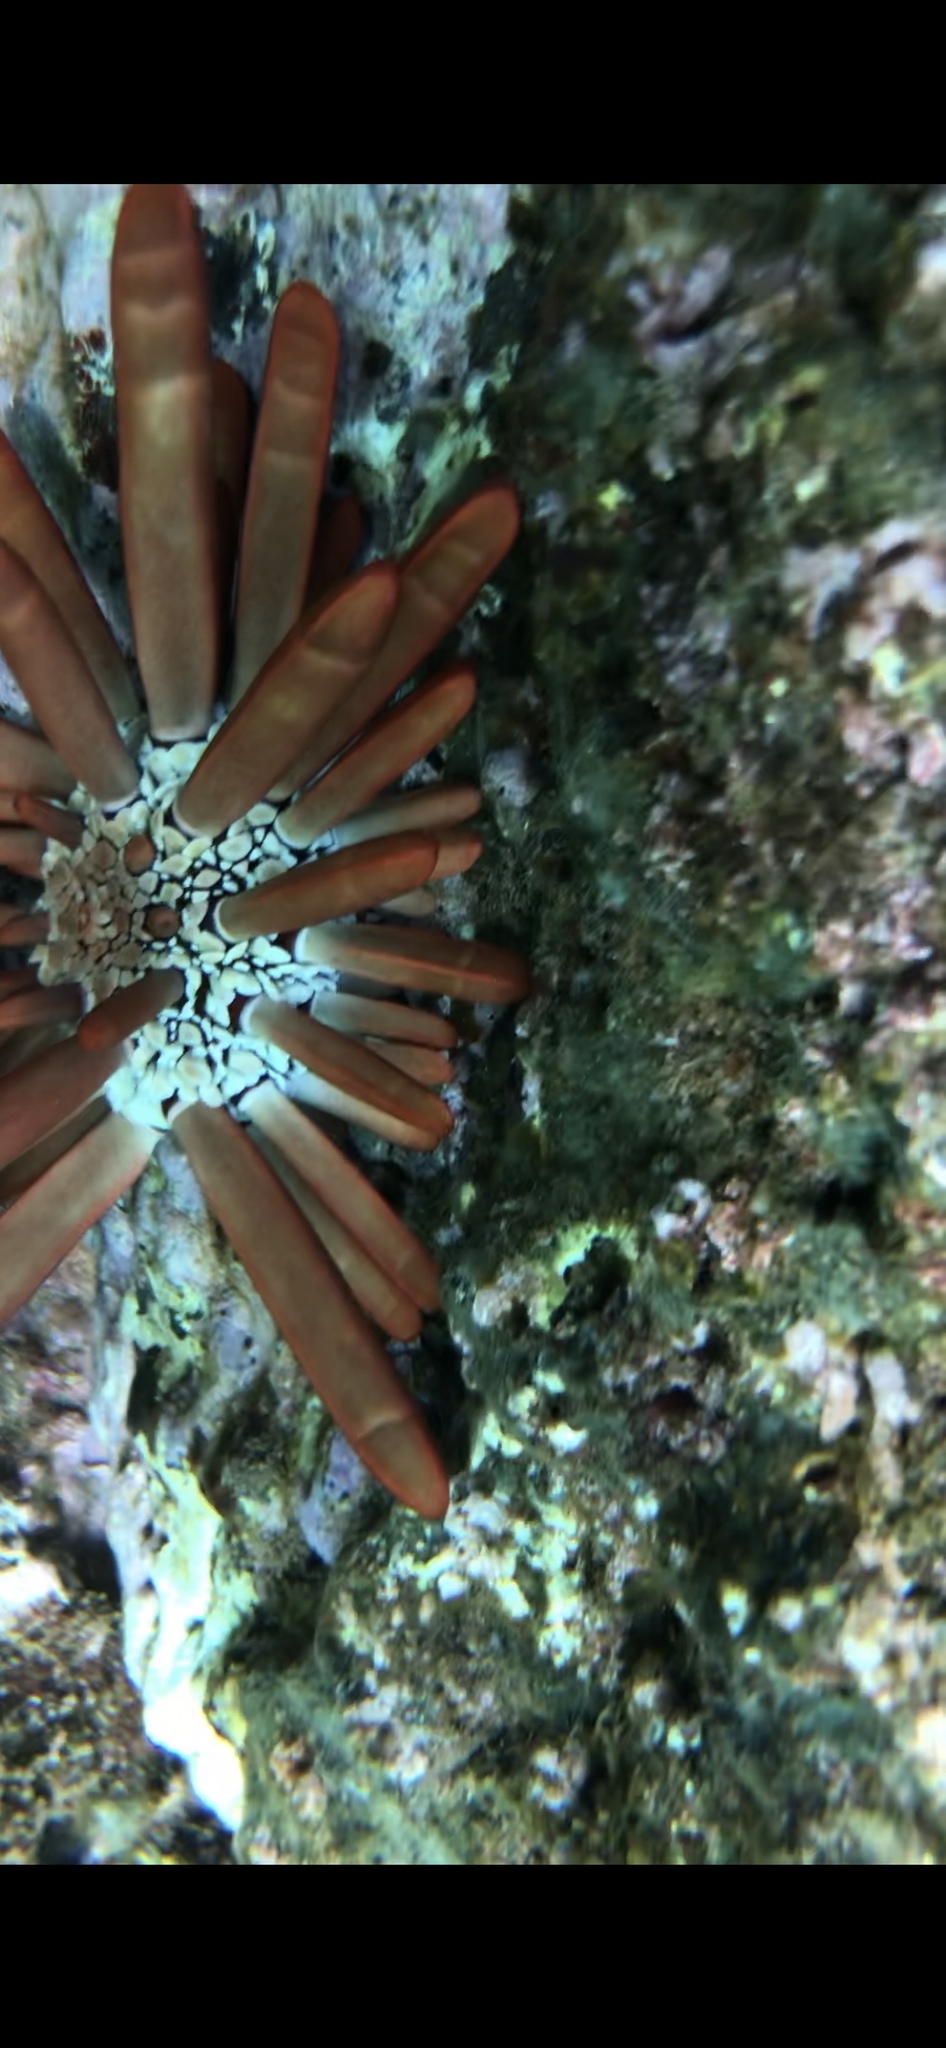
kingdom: Animalia
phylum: Echinodermata
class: Echinoidea
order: Camarodonta
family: Echinometridae
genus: Heterocentrotus
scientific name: Heterocentrotus mamillatus
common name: Slate pencil urchin
